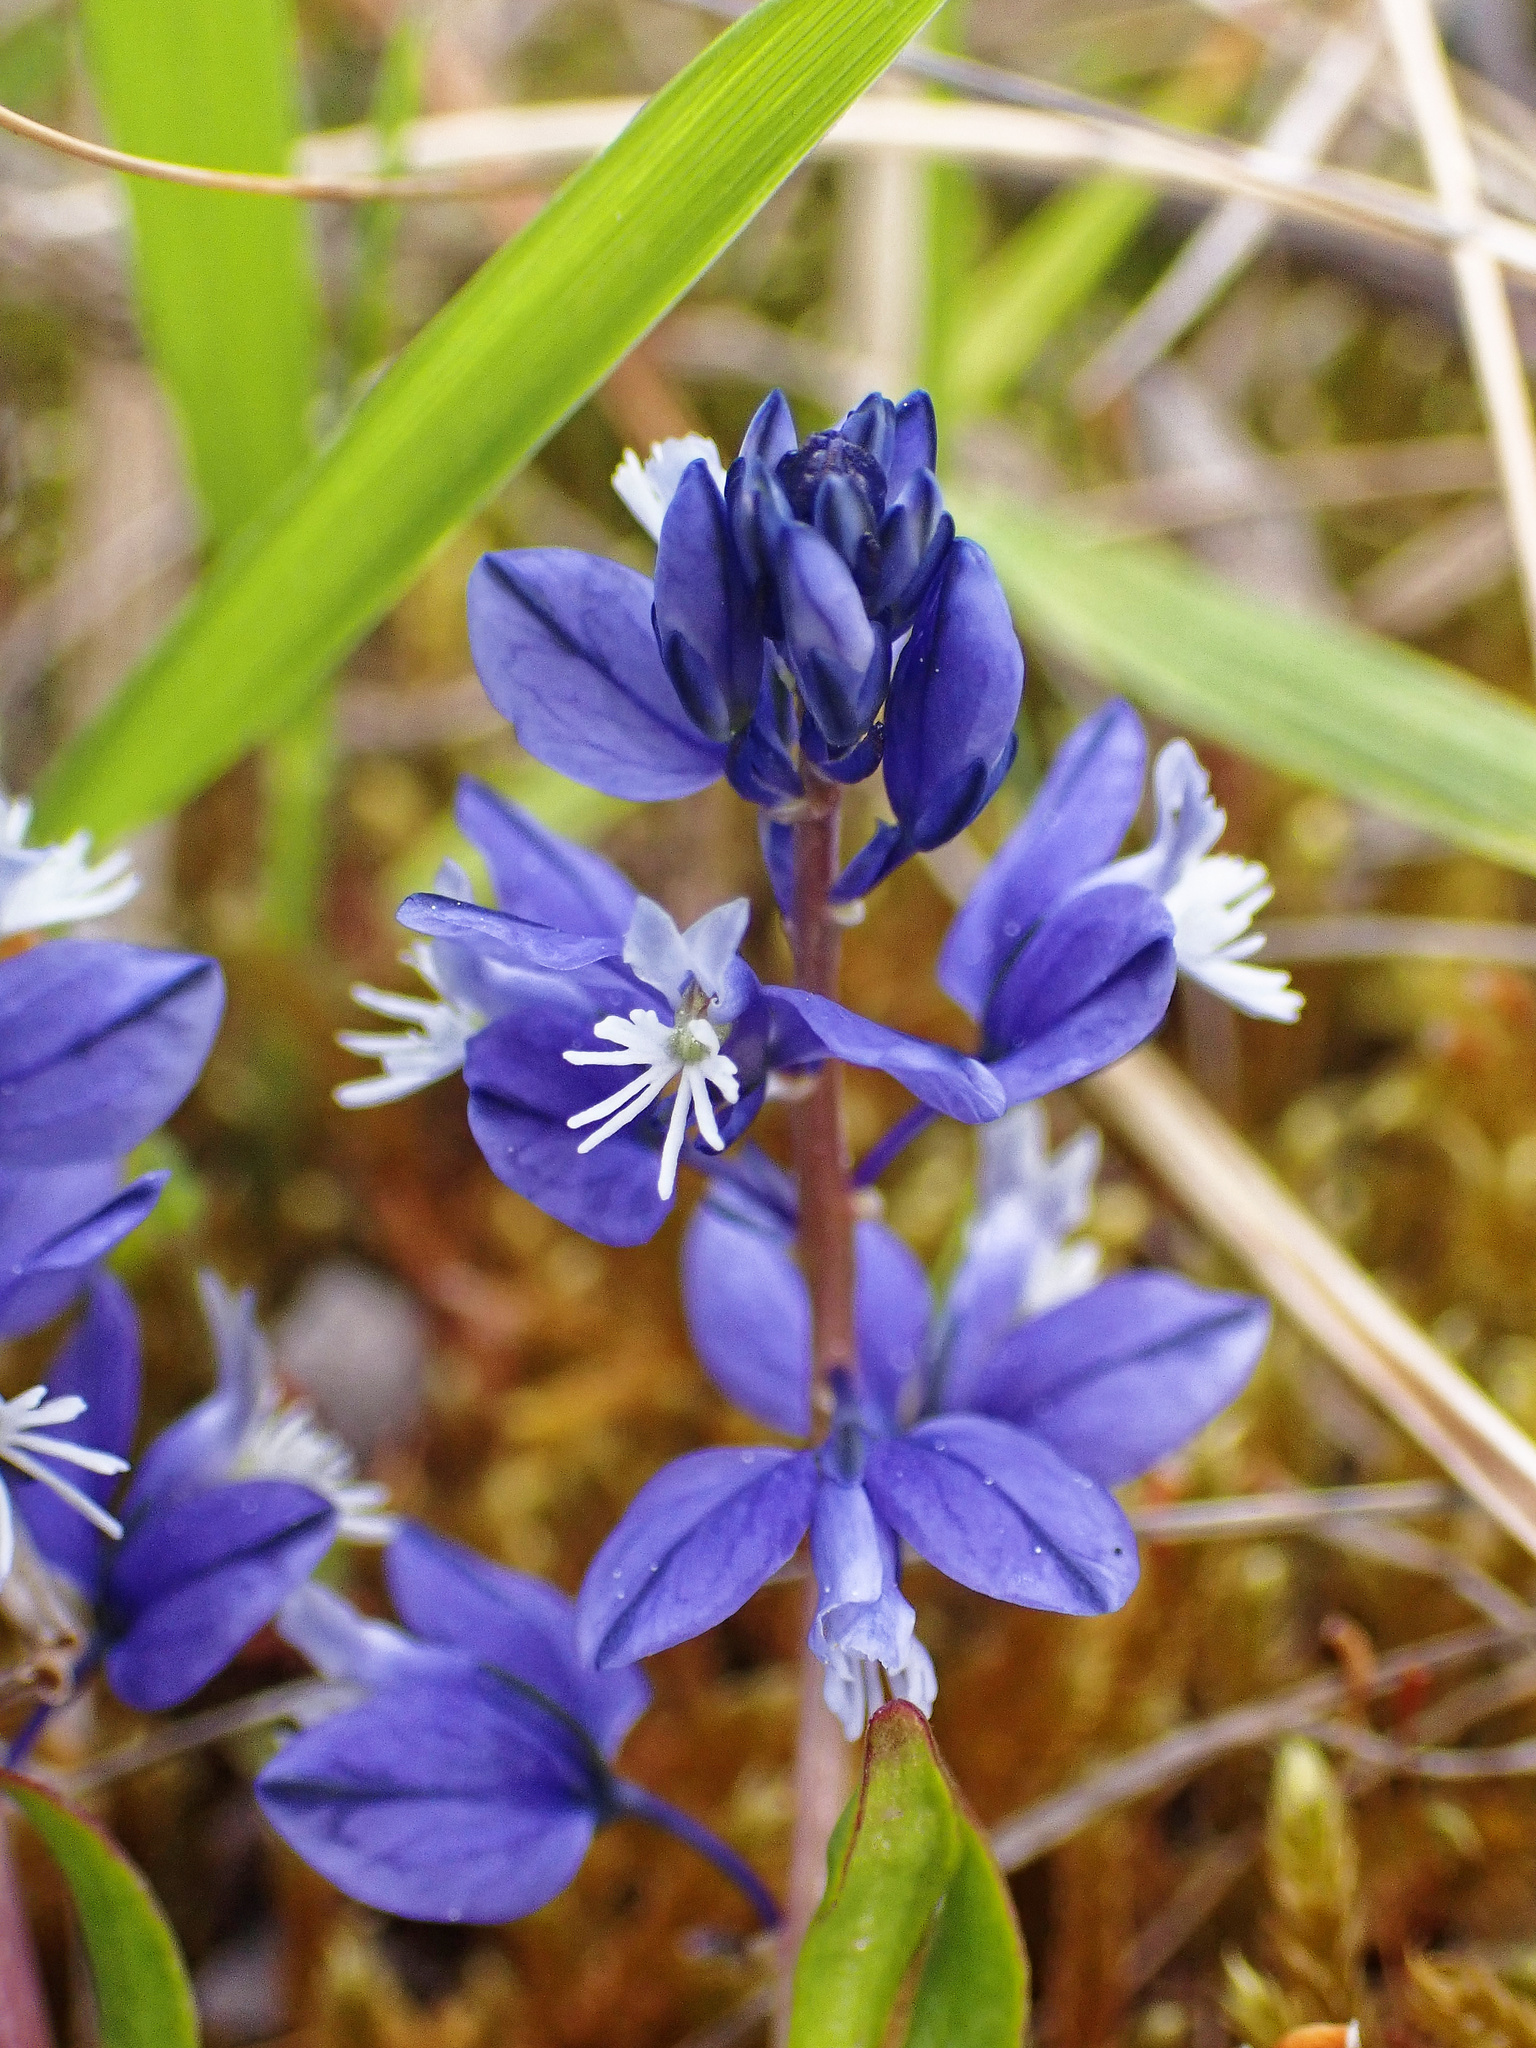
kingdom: Plantae
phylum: Tracheophyta
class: Magnoliopsida
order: Fabales
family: Polygalaceae
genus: Polygala
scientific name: Polygala calcarea
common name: Chalk milkwort
